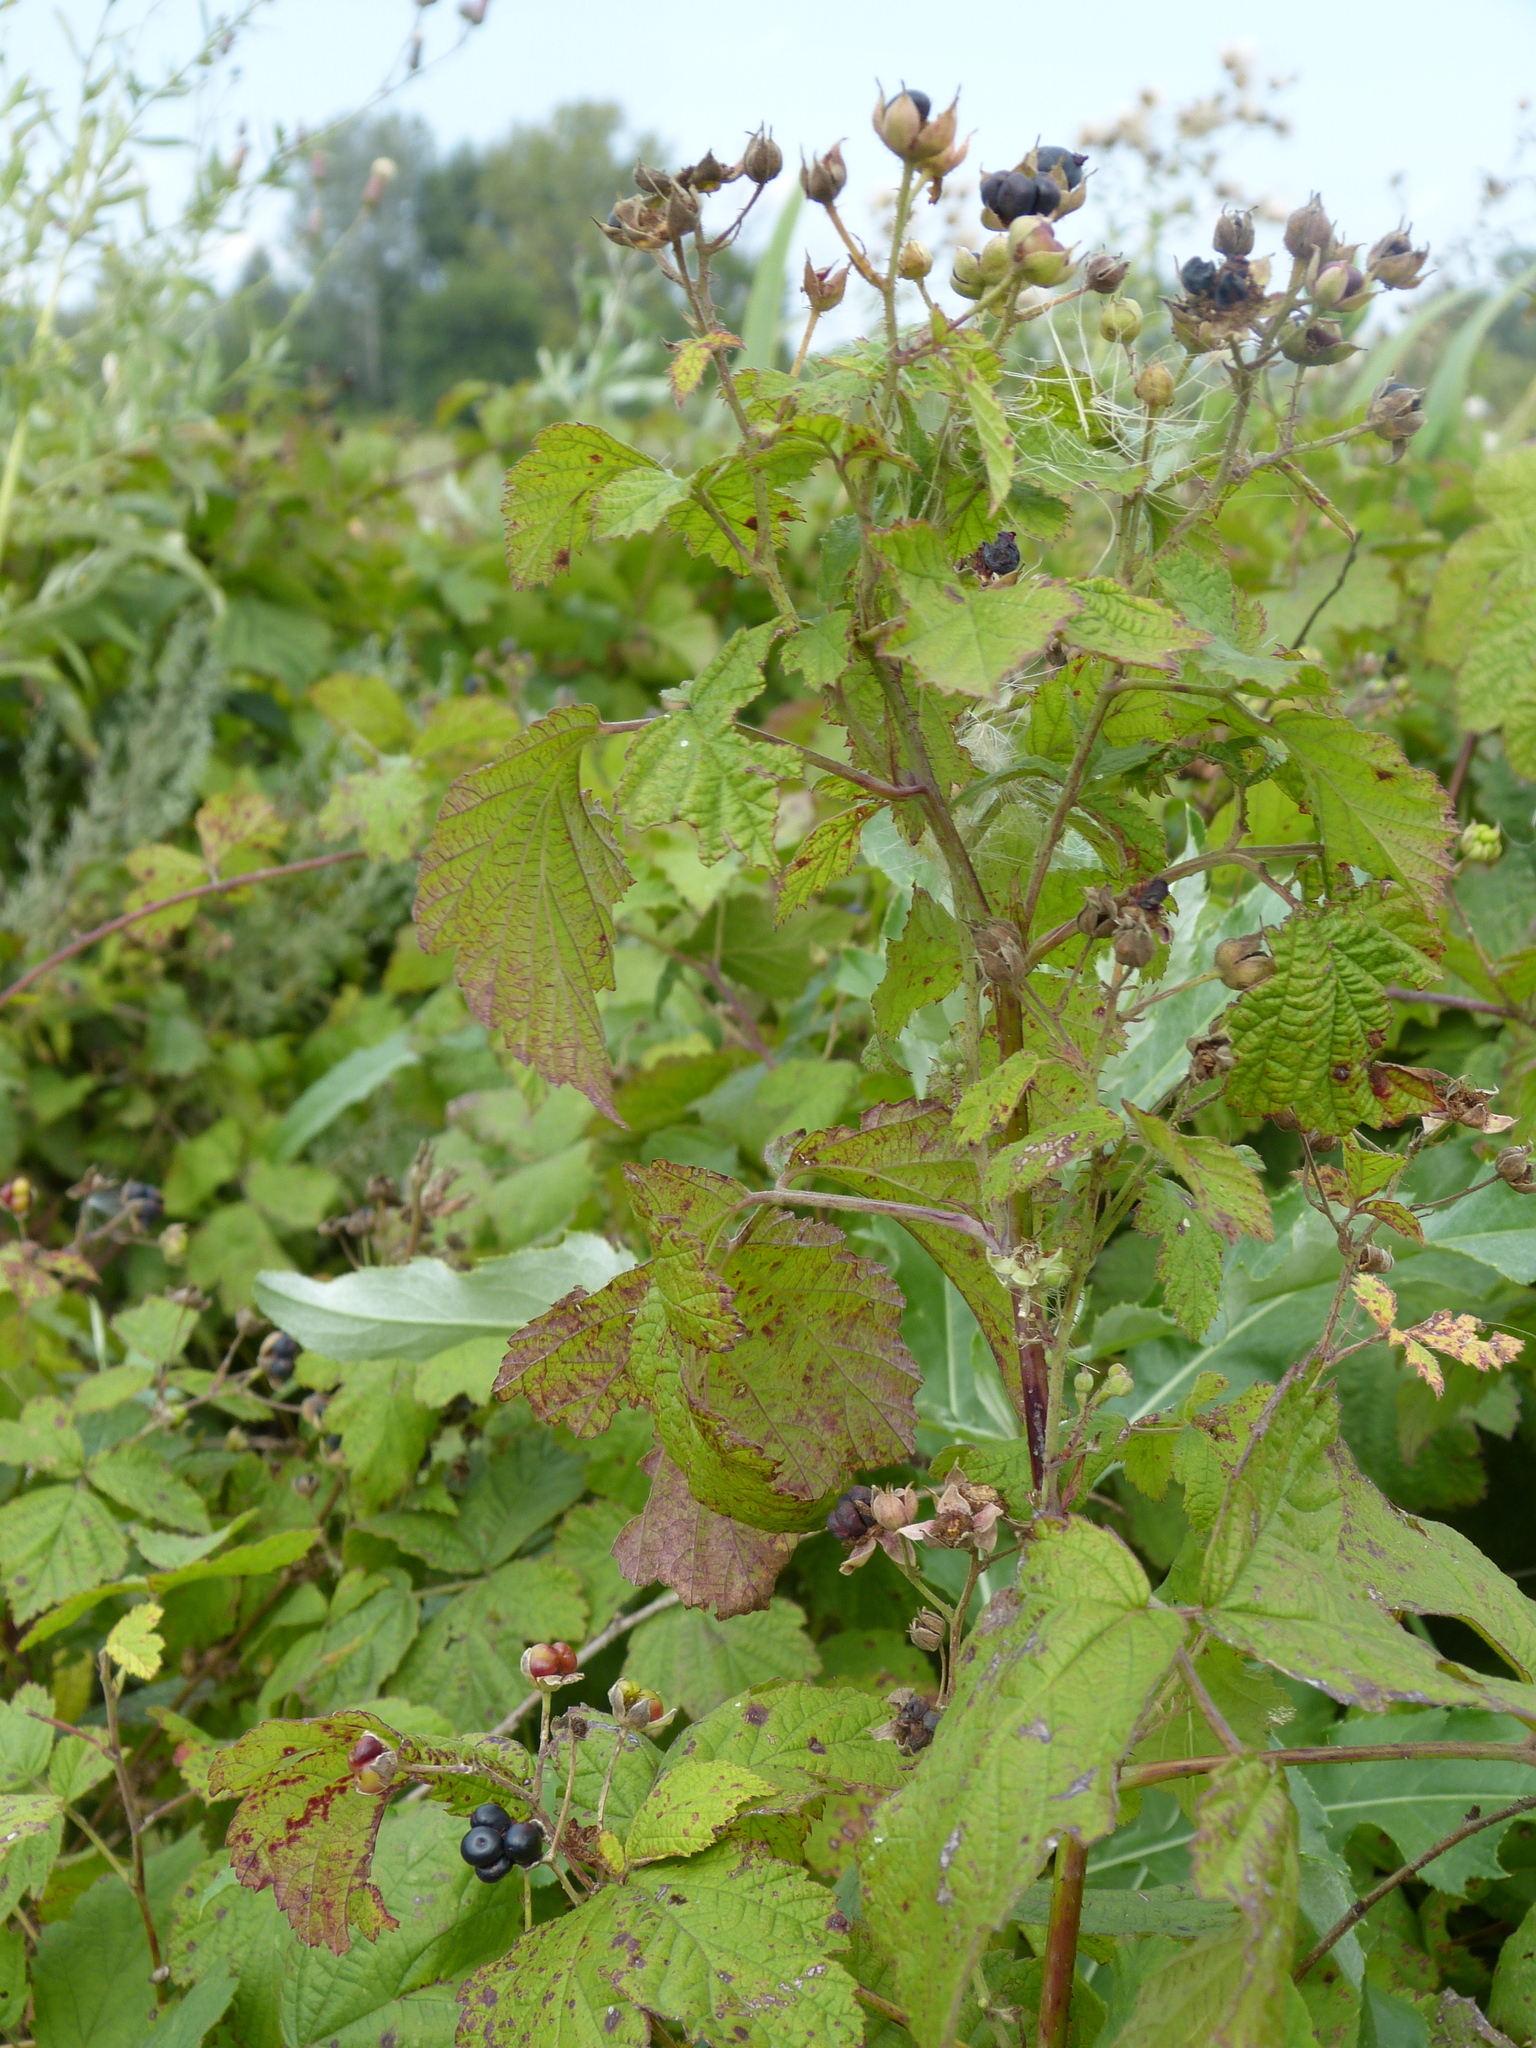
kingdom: Plantae
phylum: Tracheophyta
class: Magnoliopsida
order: Rosales
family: Rosaceae
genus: Rubus
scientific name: Rubus caesius
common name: Dewberry
